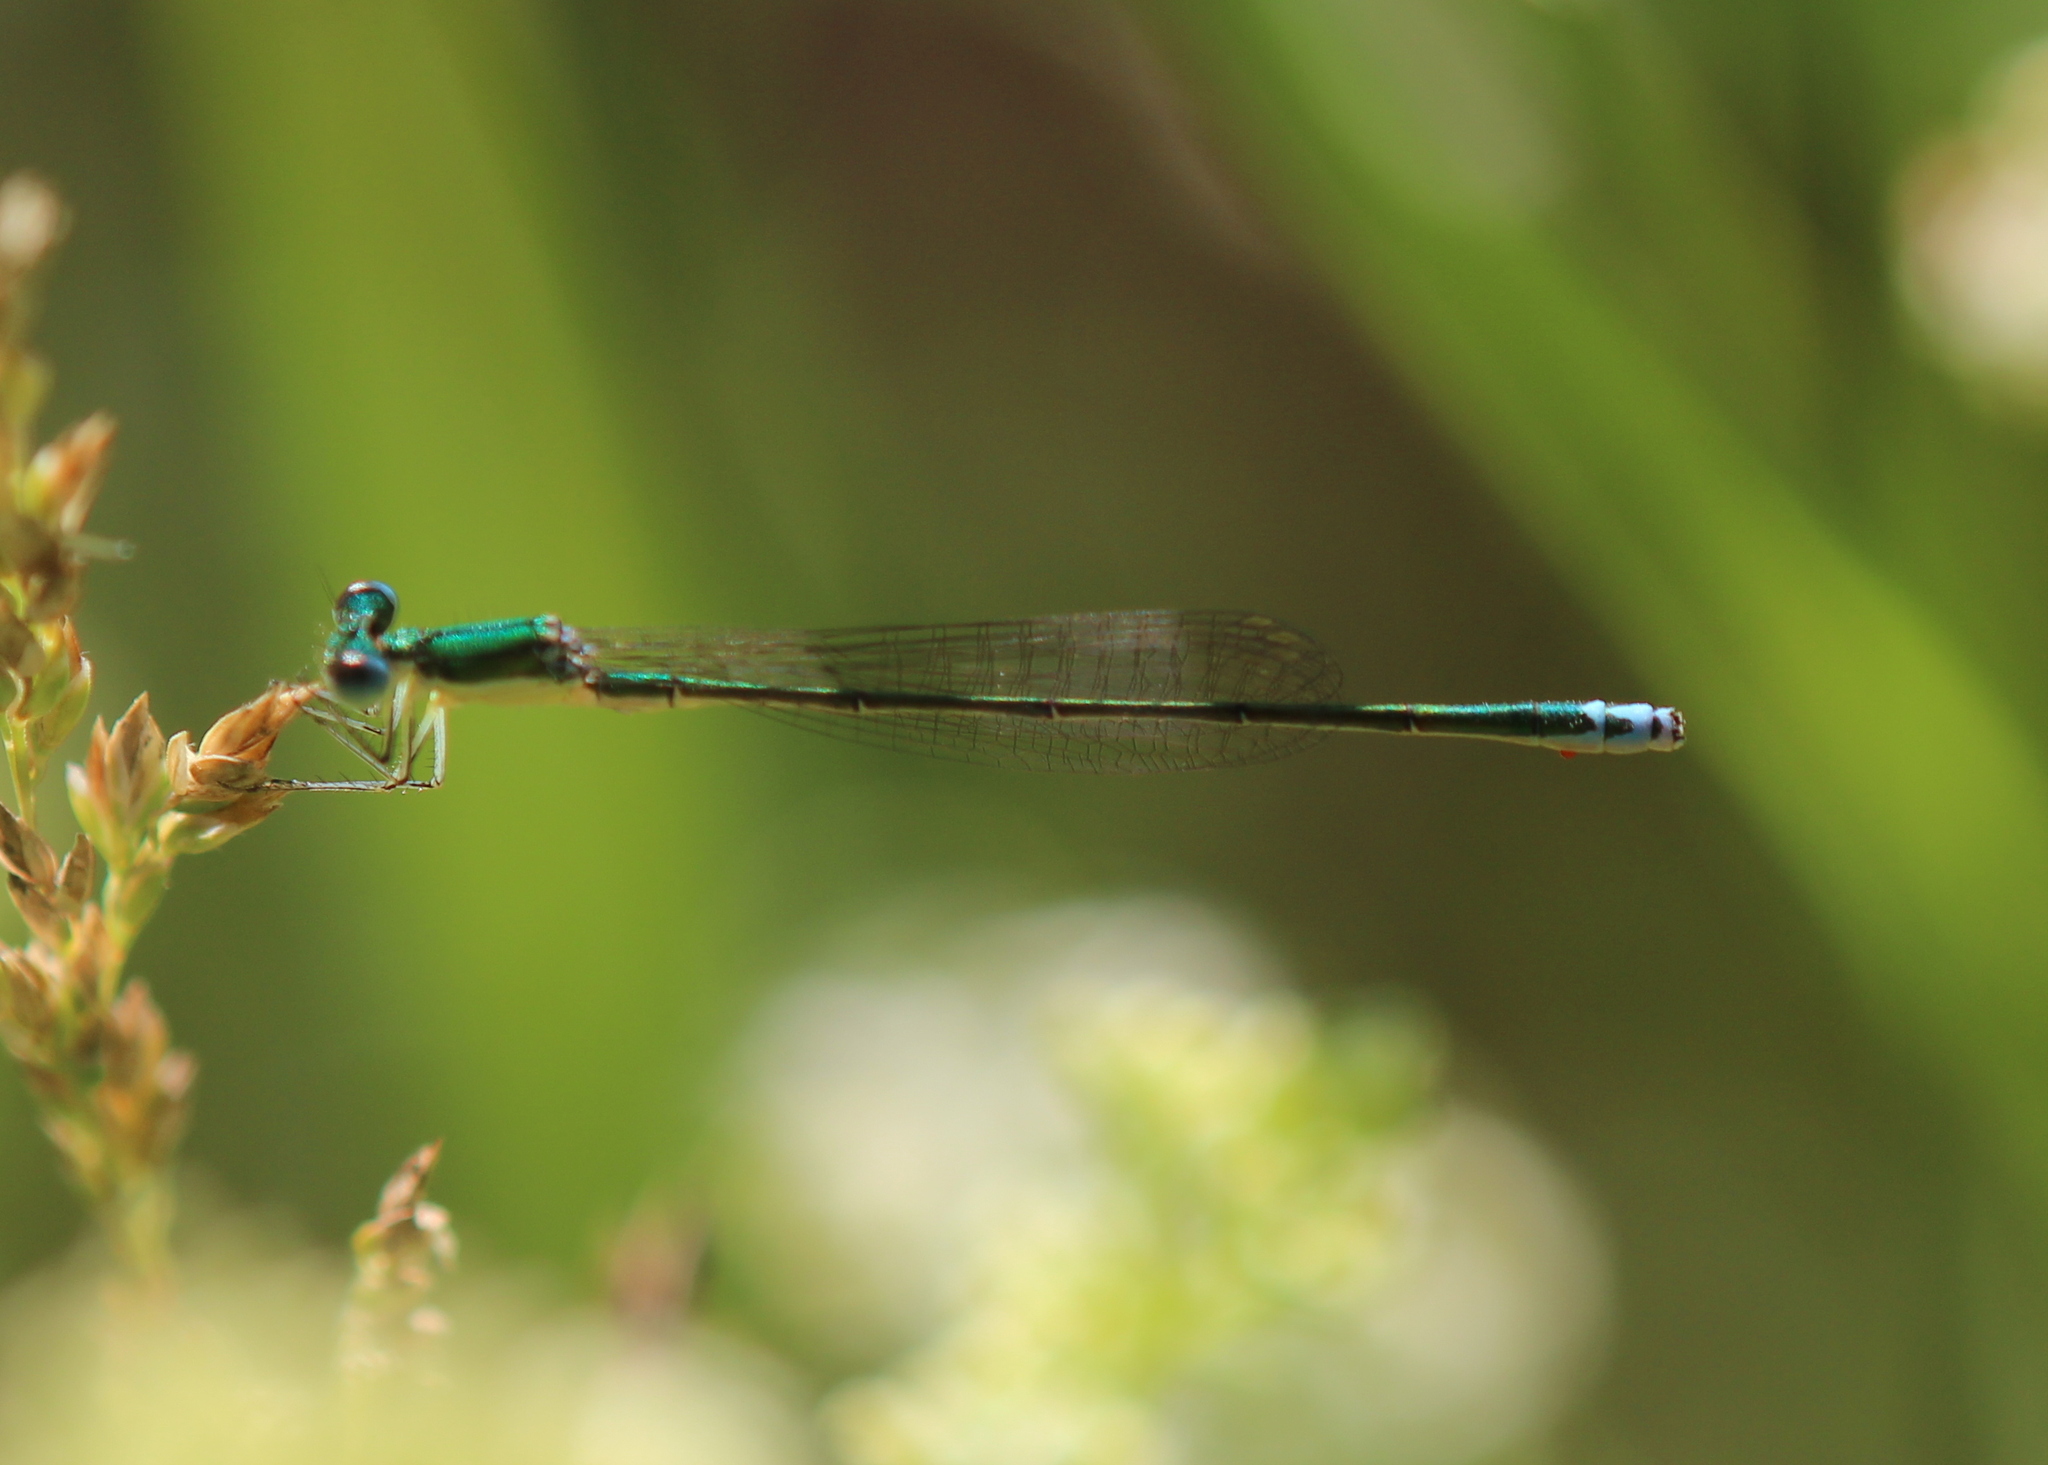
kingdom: Animalia
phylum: Arthropoda
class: Insecta
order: Odonata
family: Coenagrionidae
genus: Nehalennia
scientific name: Nehalennia irene
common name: Sedge sprite
